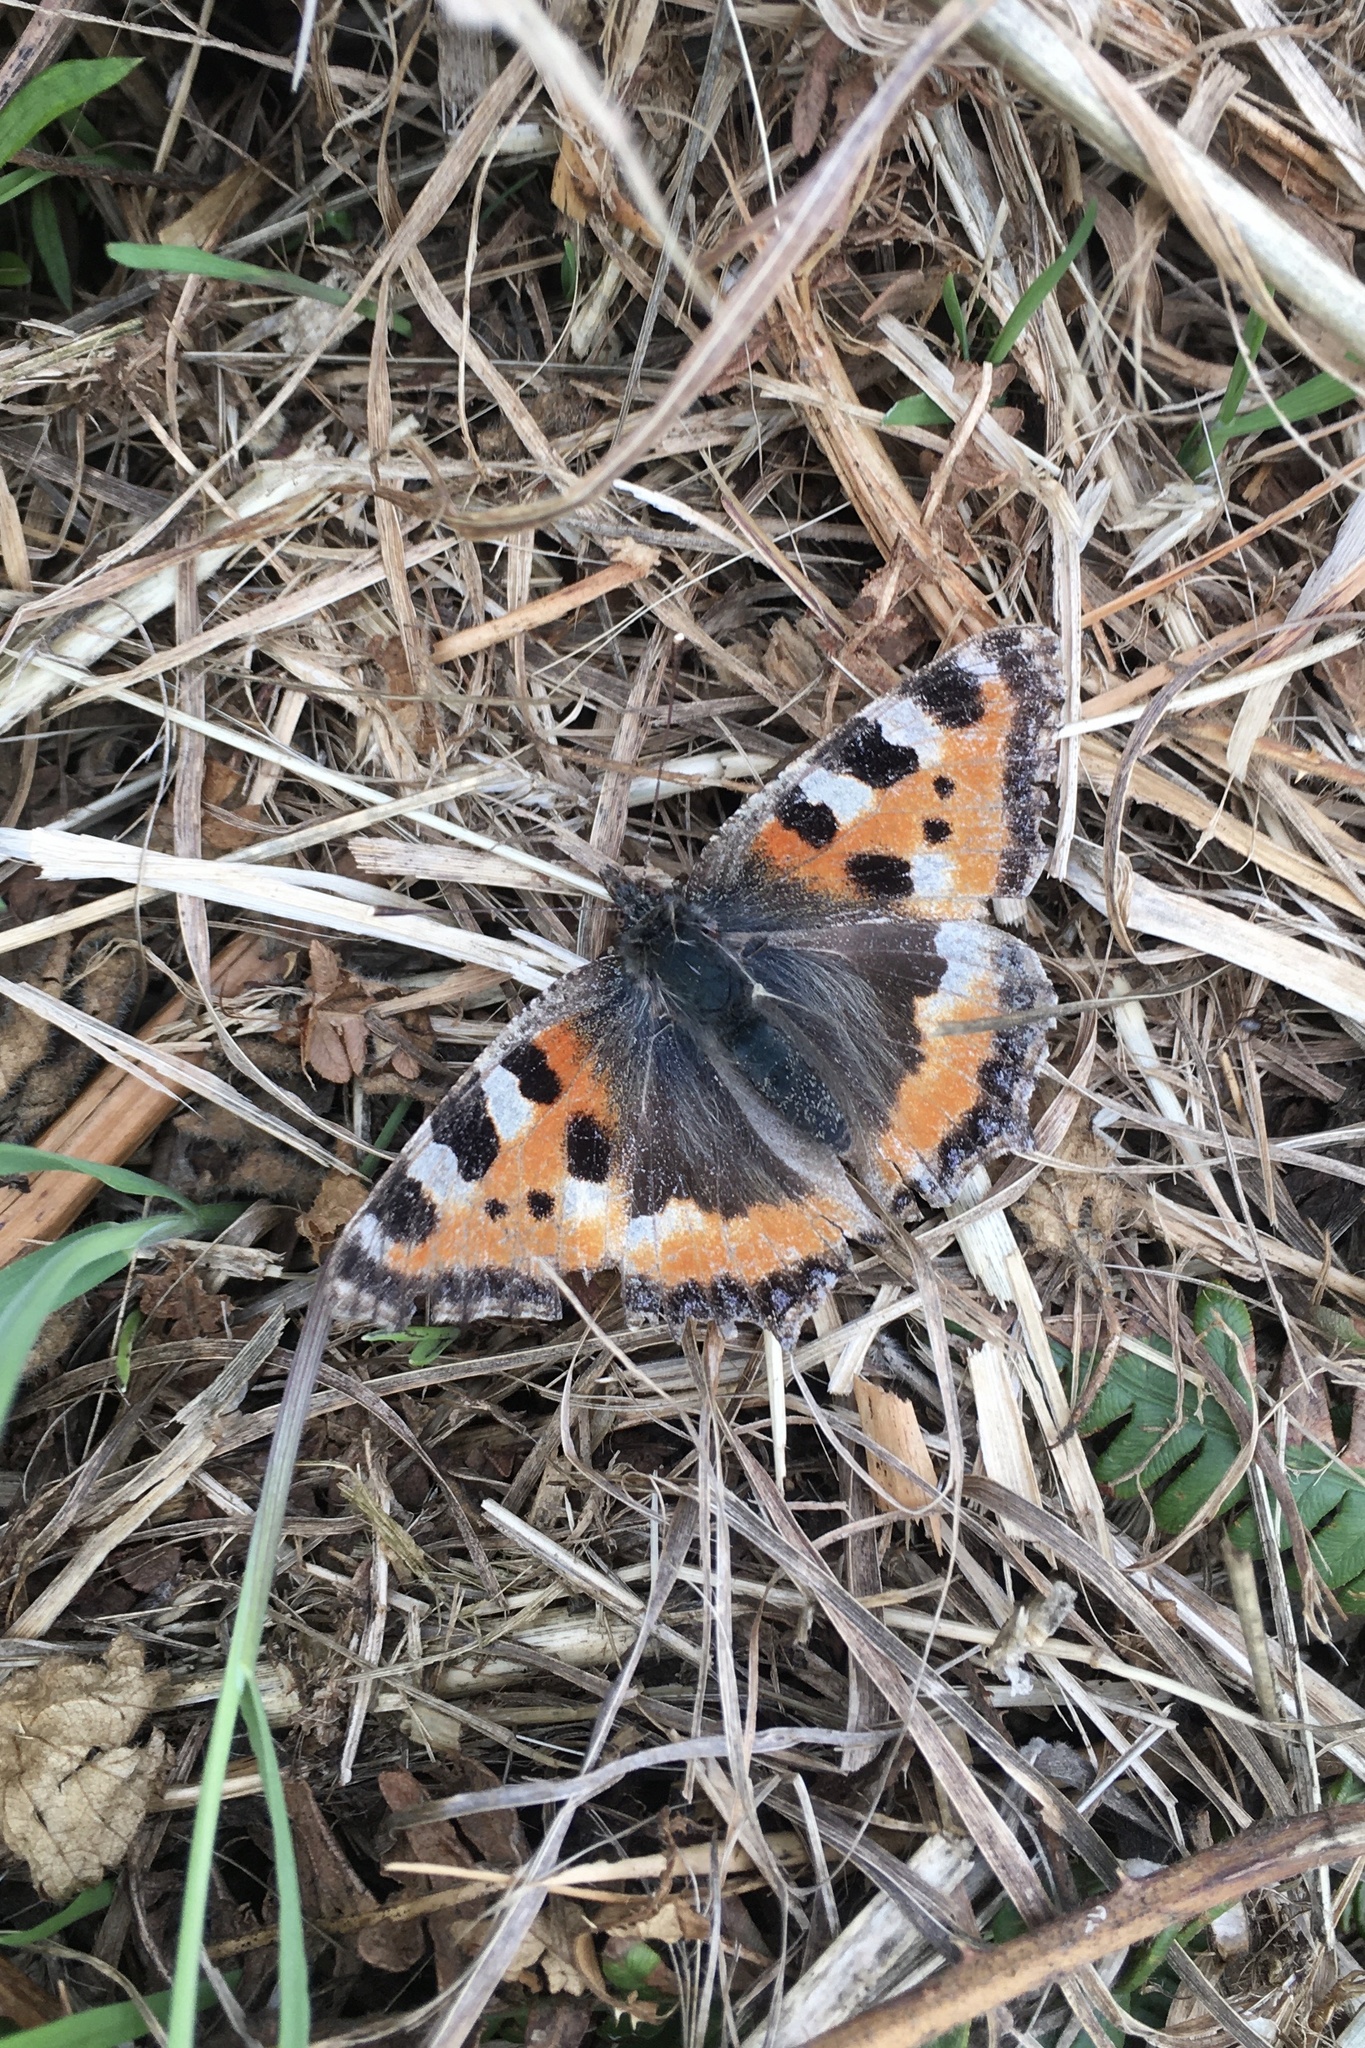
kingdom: Animalia
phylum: Arthropoda
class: Insecta
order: Lepidoptera
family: Nymphalidae
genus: Aglais
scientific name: Aglais urticae
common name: Small tortoiseshell
